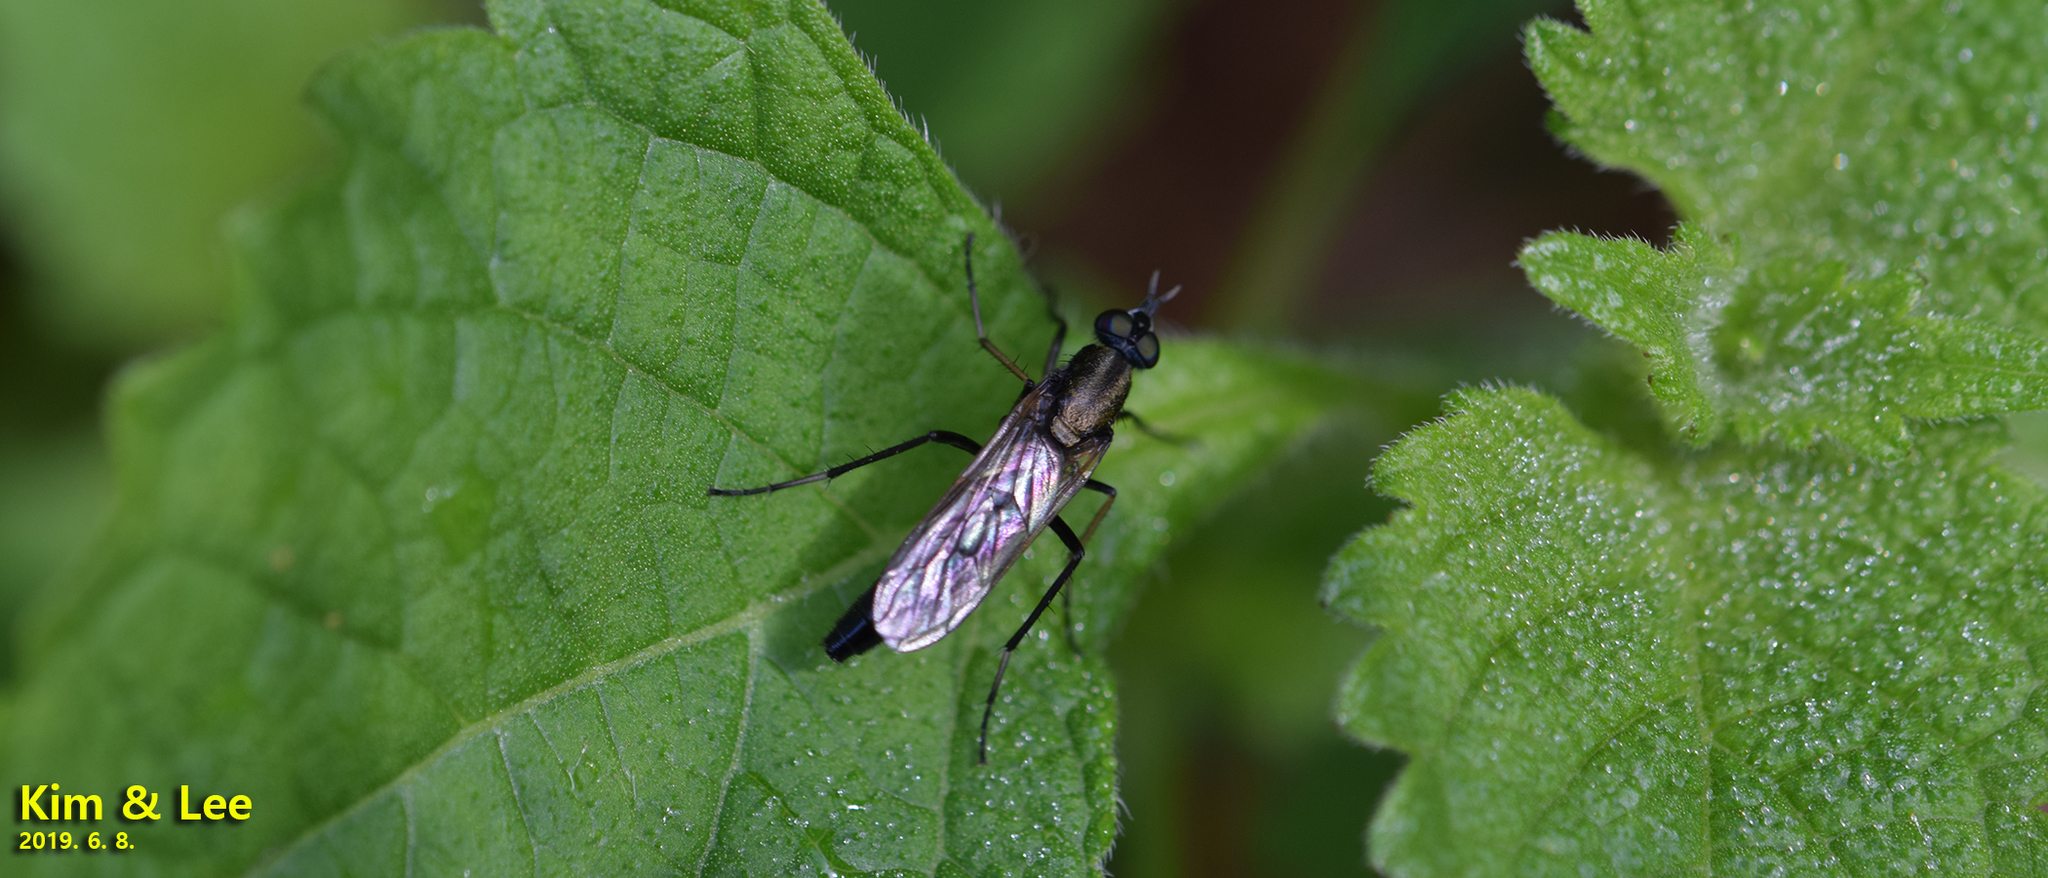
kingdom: Animalia
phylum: Arthropoda
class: Insecta
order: Diptera
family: Therevidae
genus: Procyclotelus
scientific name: Procyclotelus elegans
